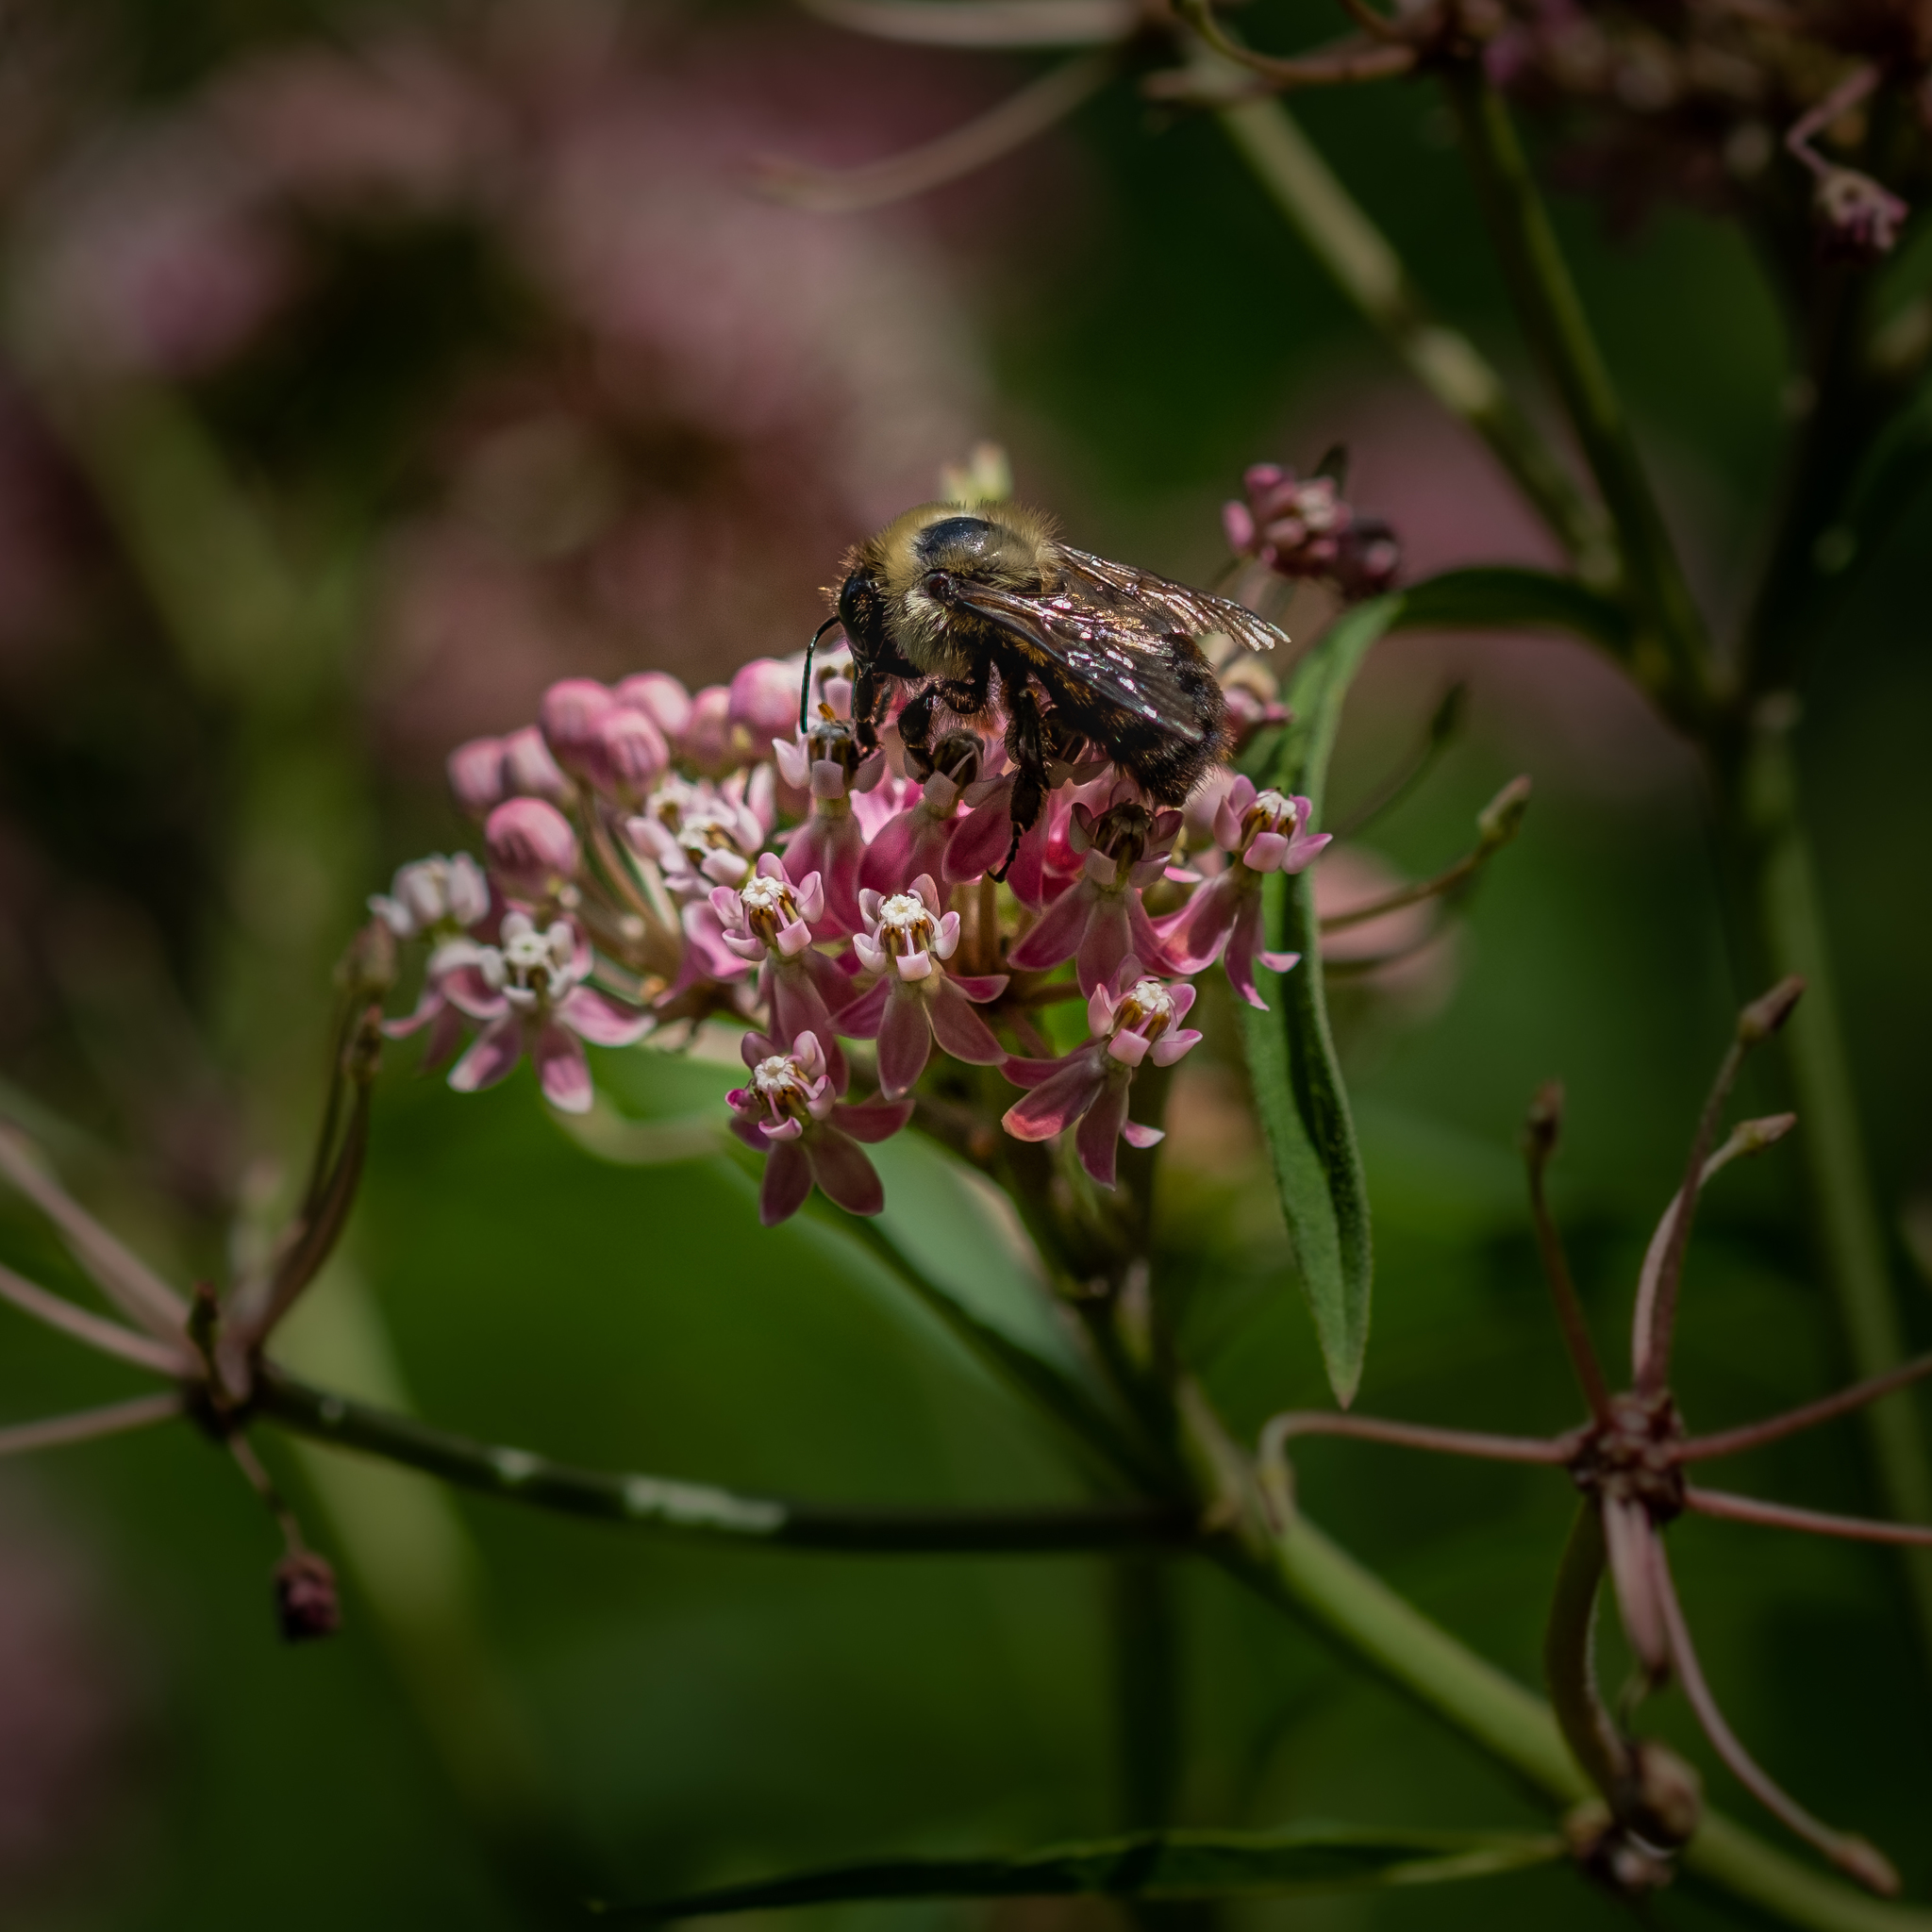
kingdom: Plantae
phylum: Tracheophyta
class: Magnoliopsida
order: Gentianales
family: Apocynaceae
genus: Asclepias
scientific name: Asclepias incarnata
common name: Swamp milkweed
